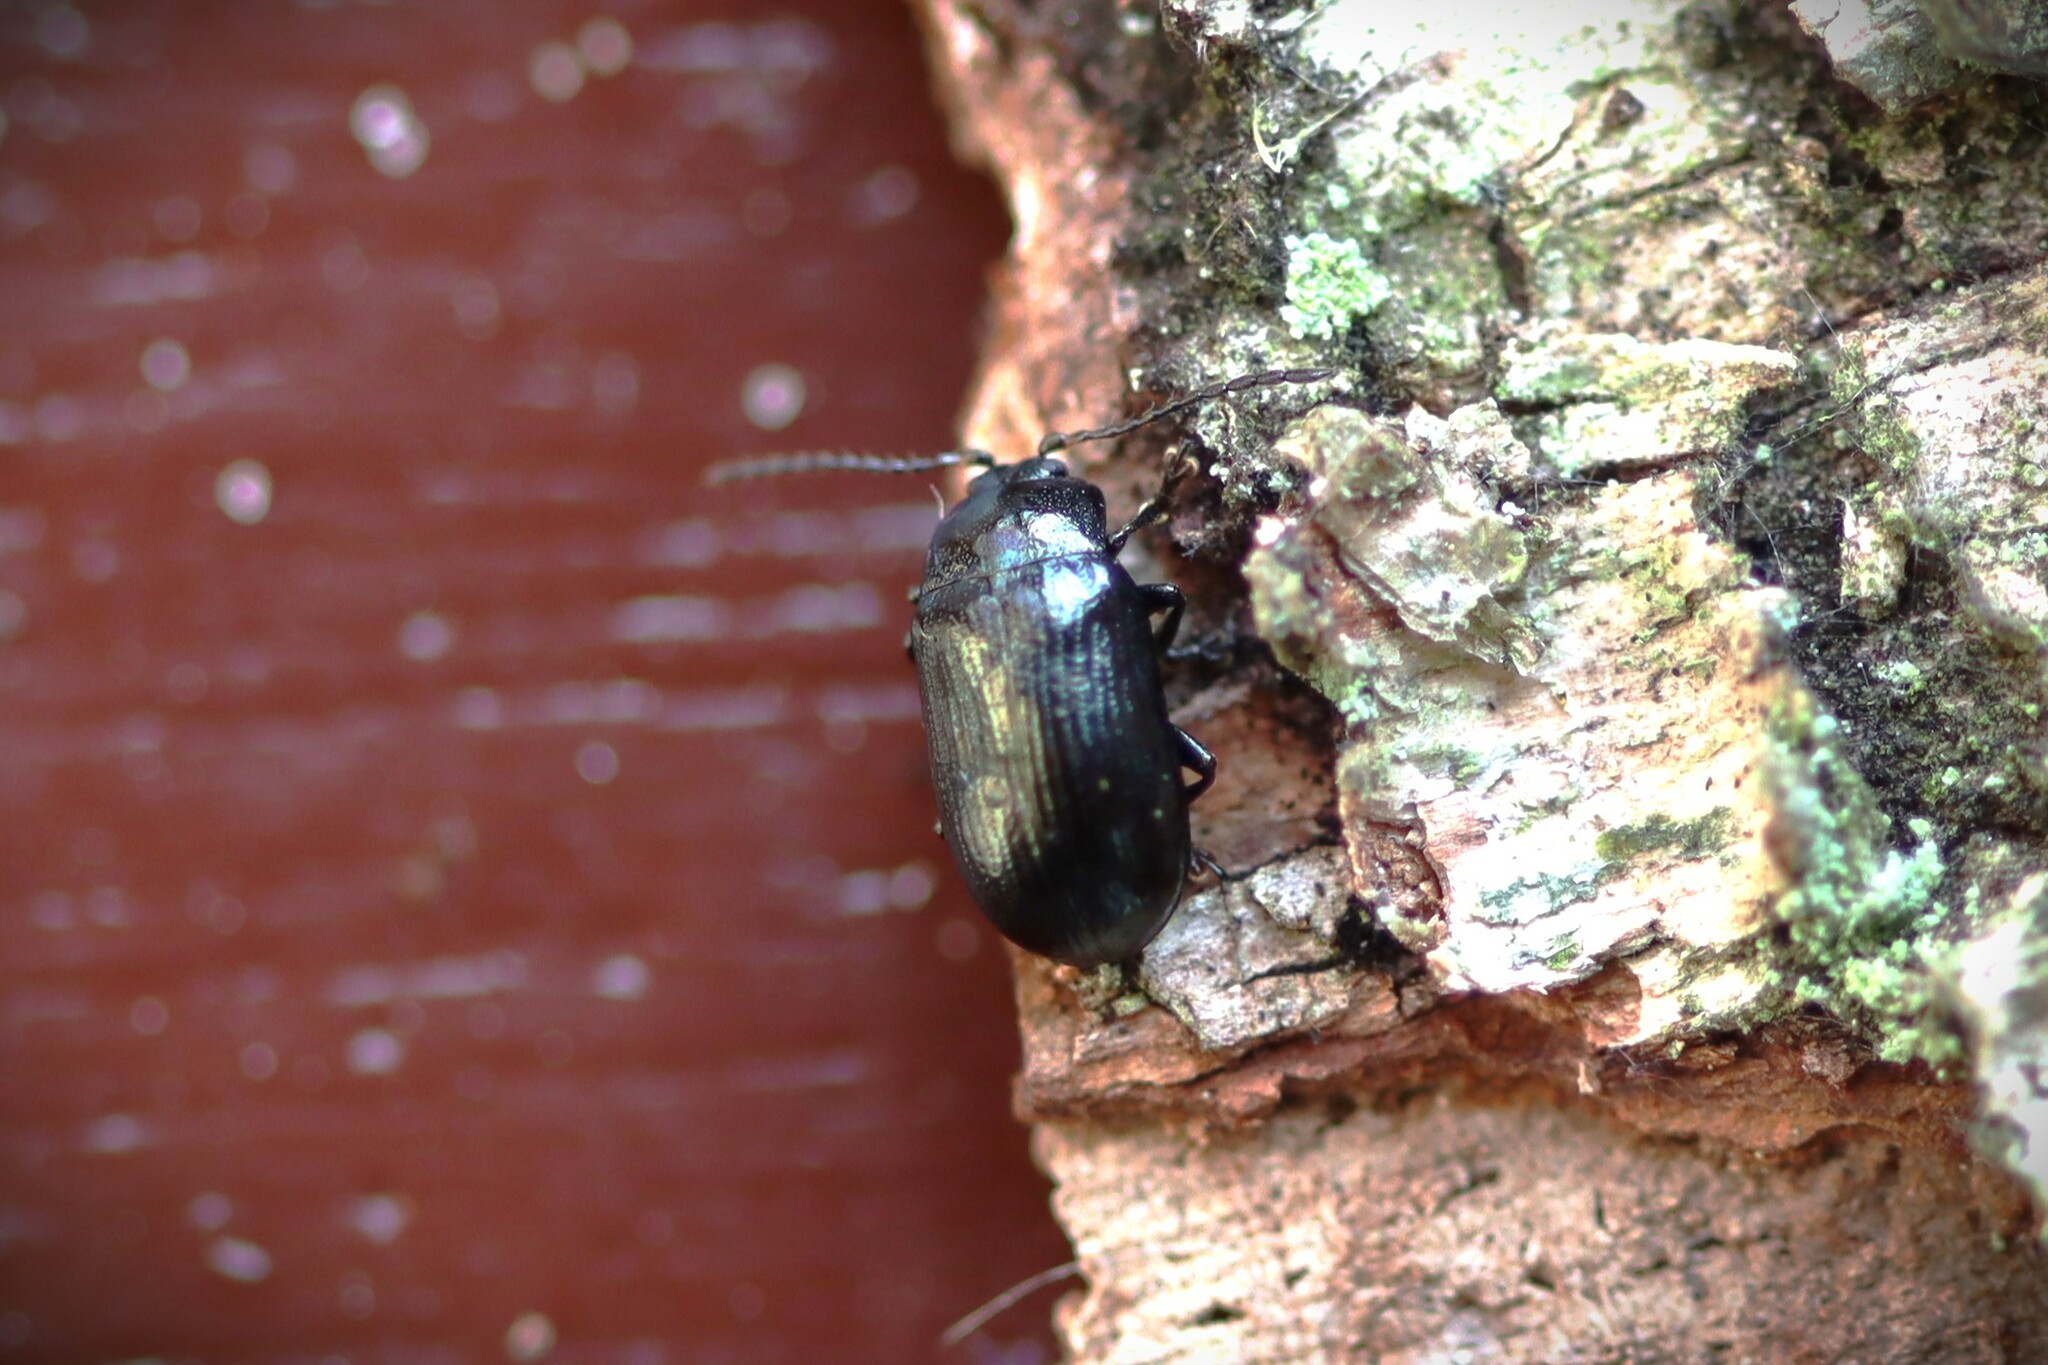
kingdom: Animalia
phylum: Arthropoda
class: Insecta
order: Coleoptera
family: Chrysomelidae
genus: Phratora
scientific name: Phratora vulgatissima
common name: Blue willow beetle
